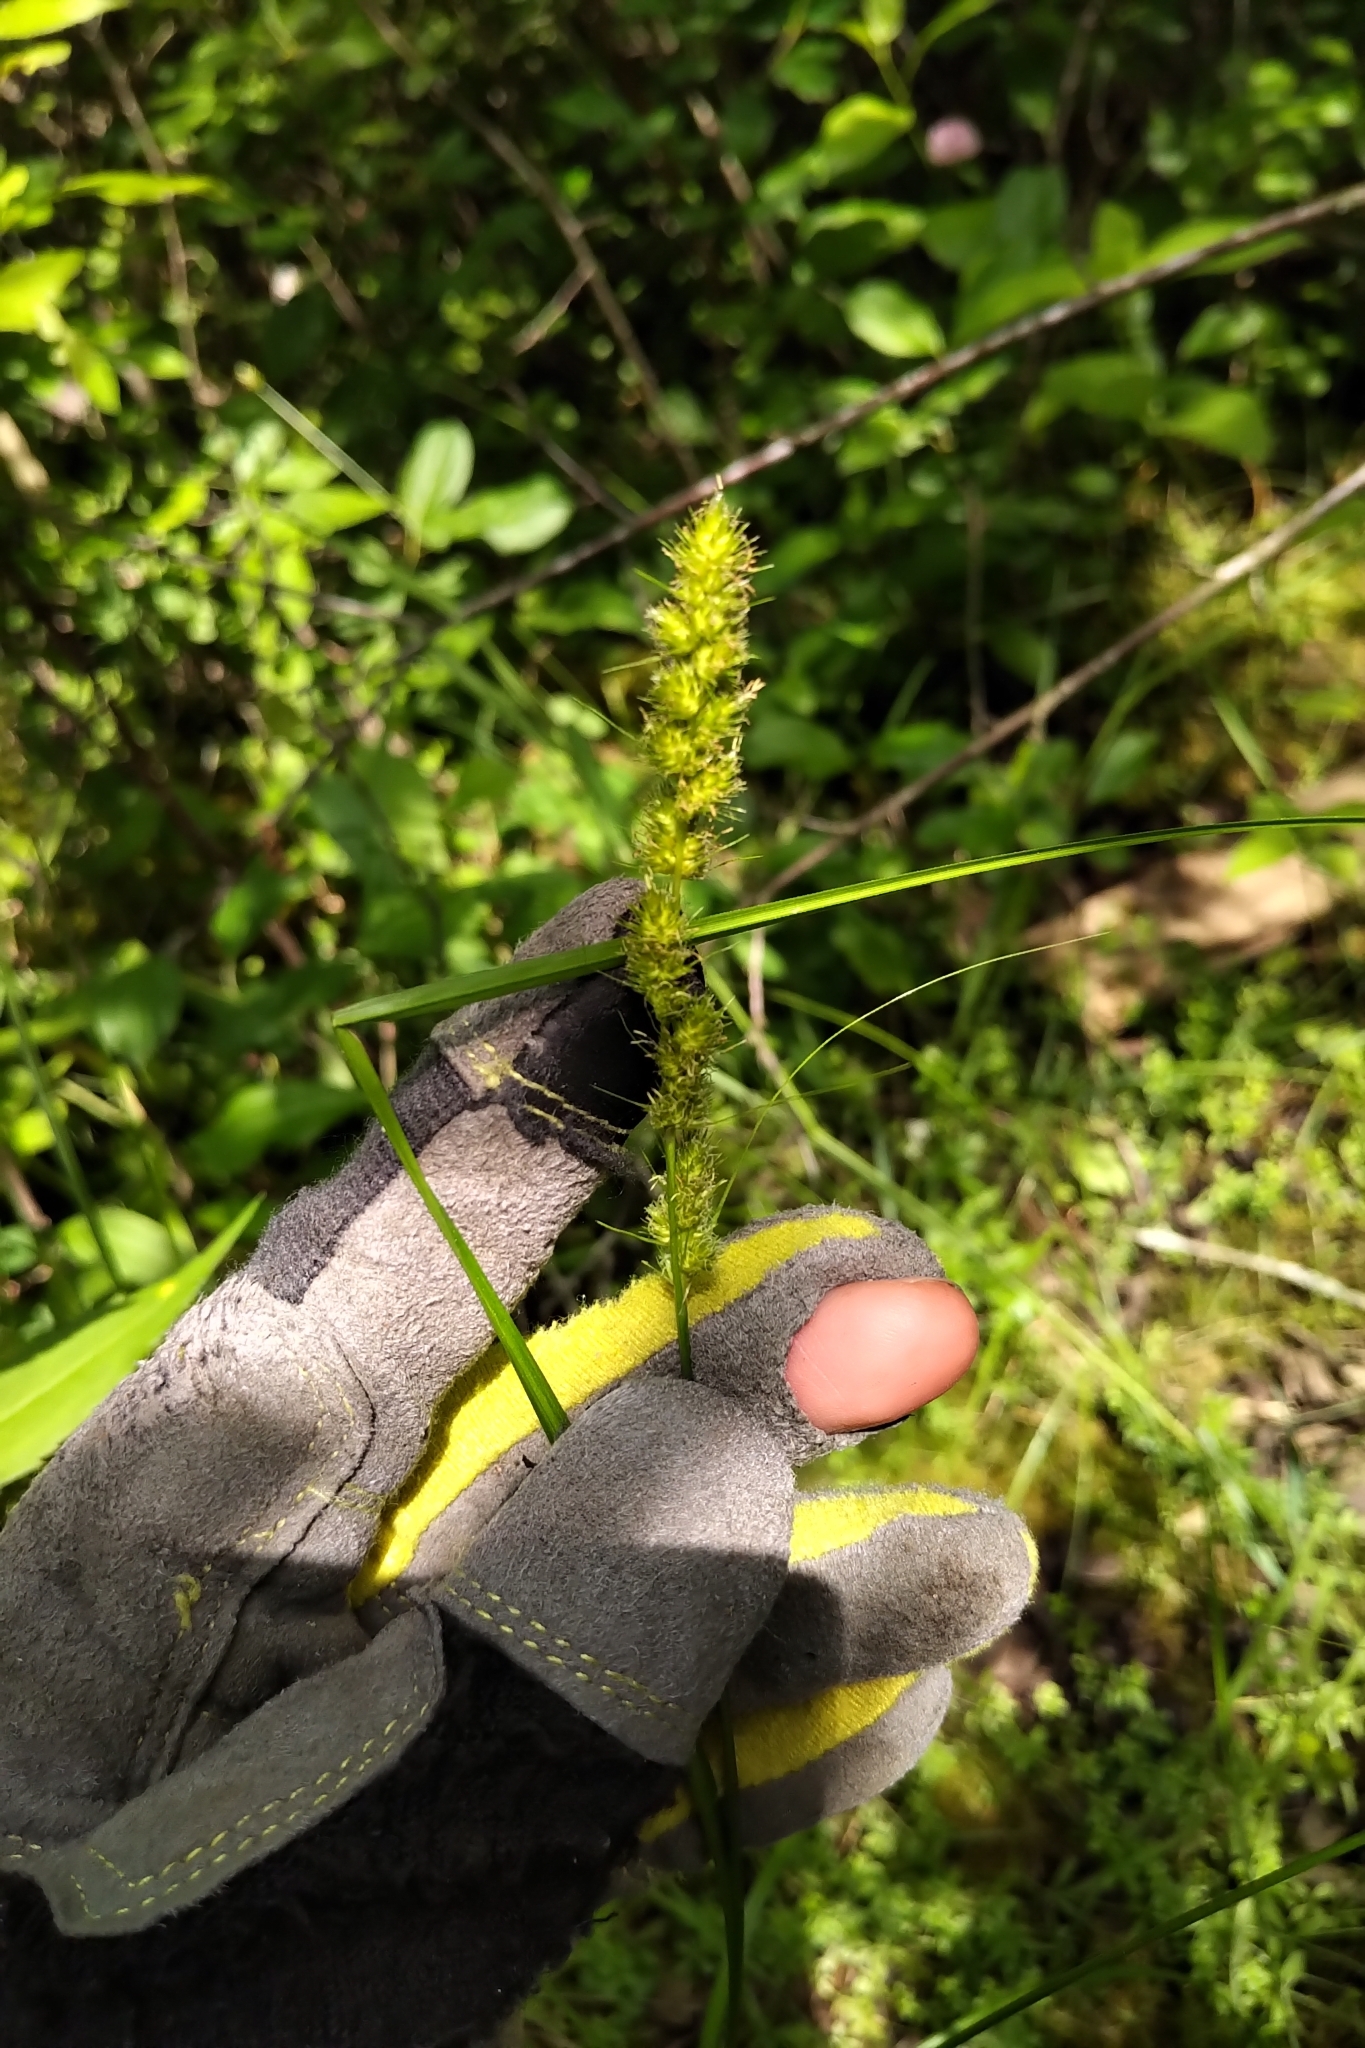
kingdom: Plantae
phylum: Tracheophyta
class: Liliopsida
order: Poales
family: Cyperaceae
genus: Carex
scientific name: Carex vulpinoidea
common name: American fox-sedge
